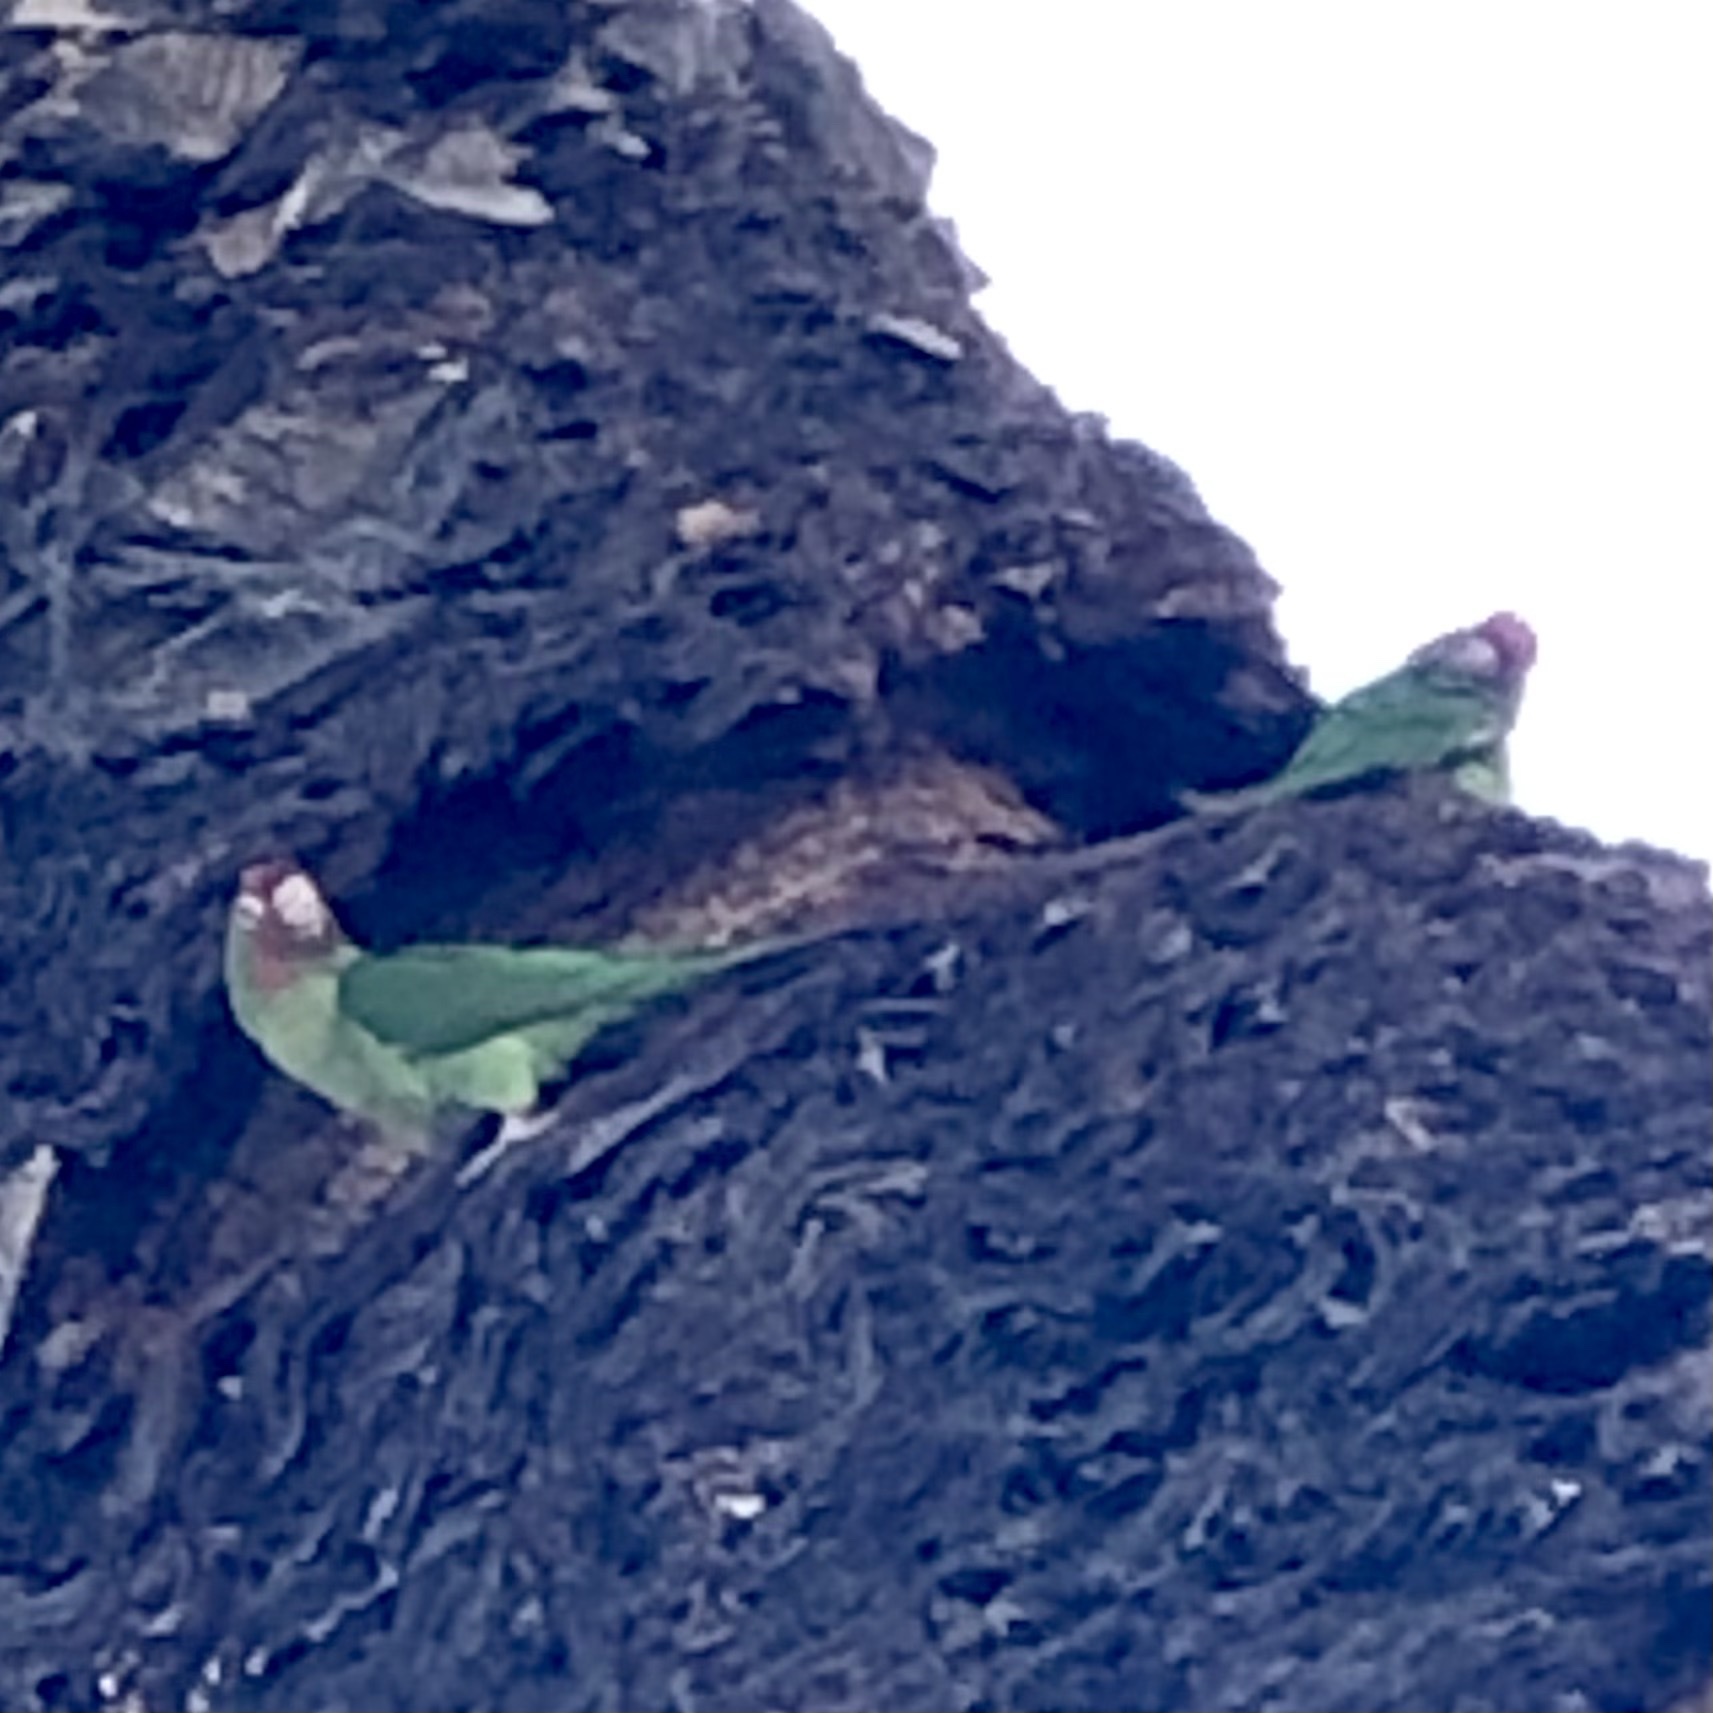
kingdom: Animalia
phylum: Chordata
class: Aves
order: Psittaciformes
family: Psittacidae
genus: Psittacara
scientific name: Psittacara
